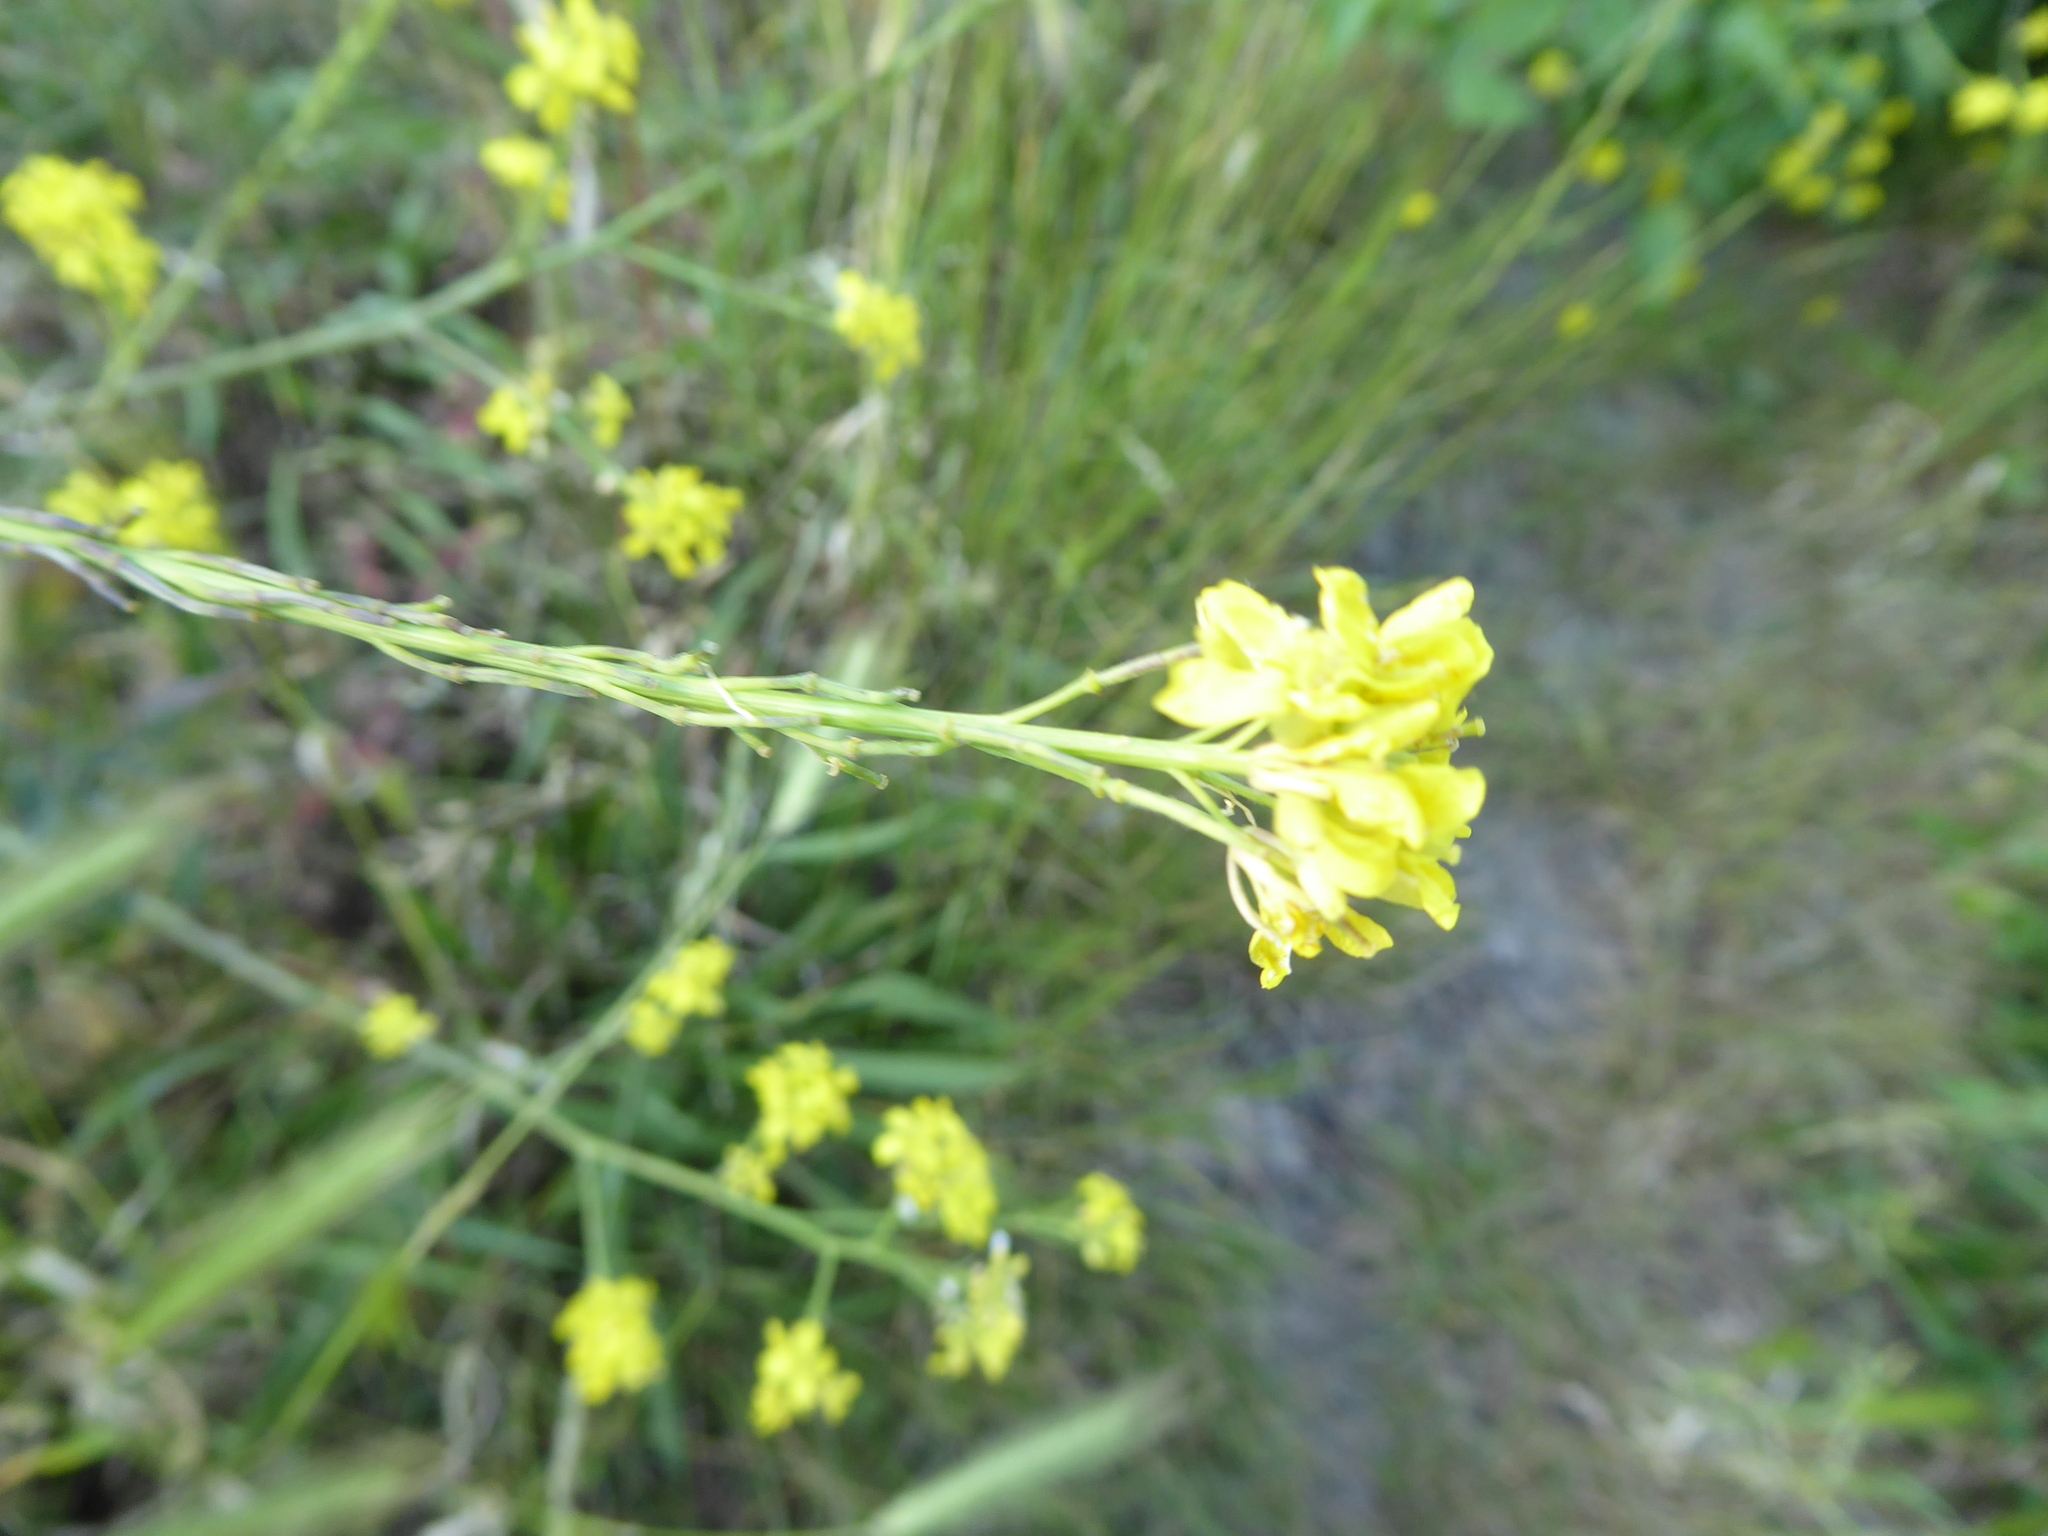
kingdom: Plantae
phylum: Tracheophyta
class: Magnoliopsida
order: Brassicales
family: Brassicaceae
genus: Hirschfeldia
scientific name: Hirschfeldia incana
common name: Hoary mustard
